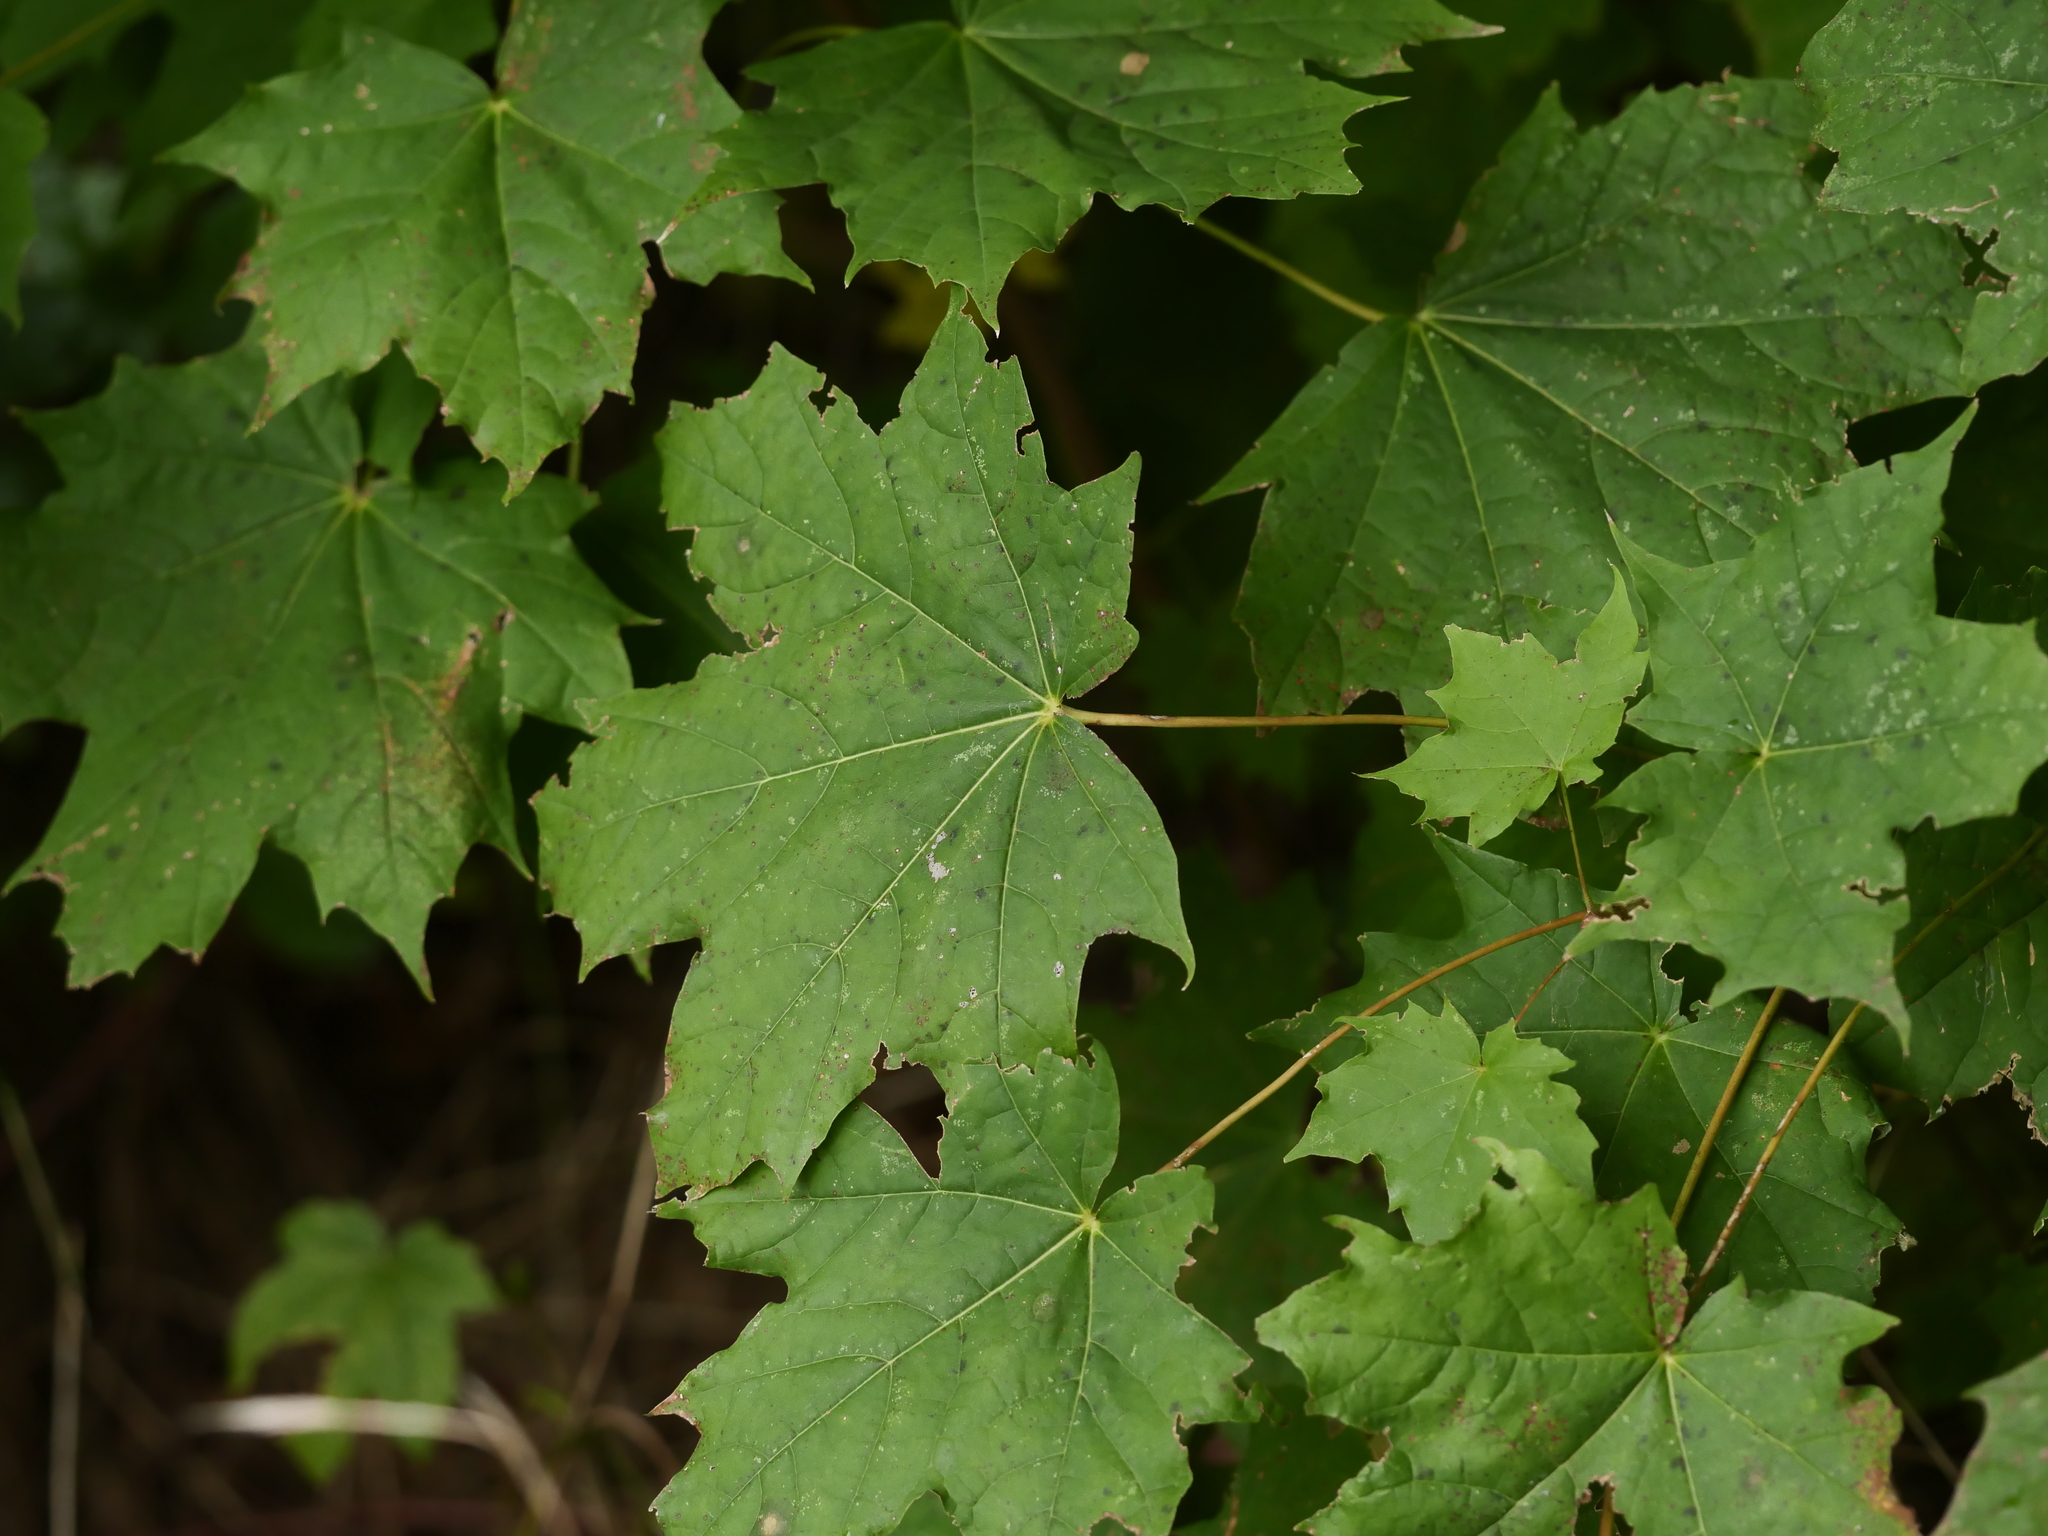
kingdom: Plantae
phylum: Tracheophyta
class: Magnoliopsida
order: Sapindales
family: Sapindaceae
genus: Acer
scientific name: Acer platanoides
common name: Norway maple
